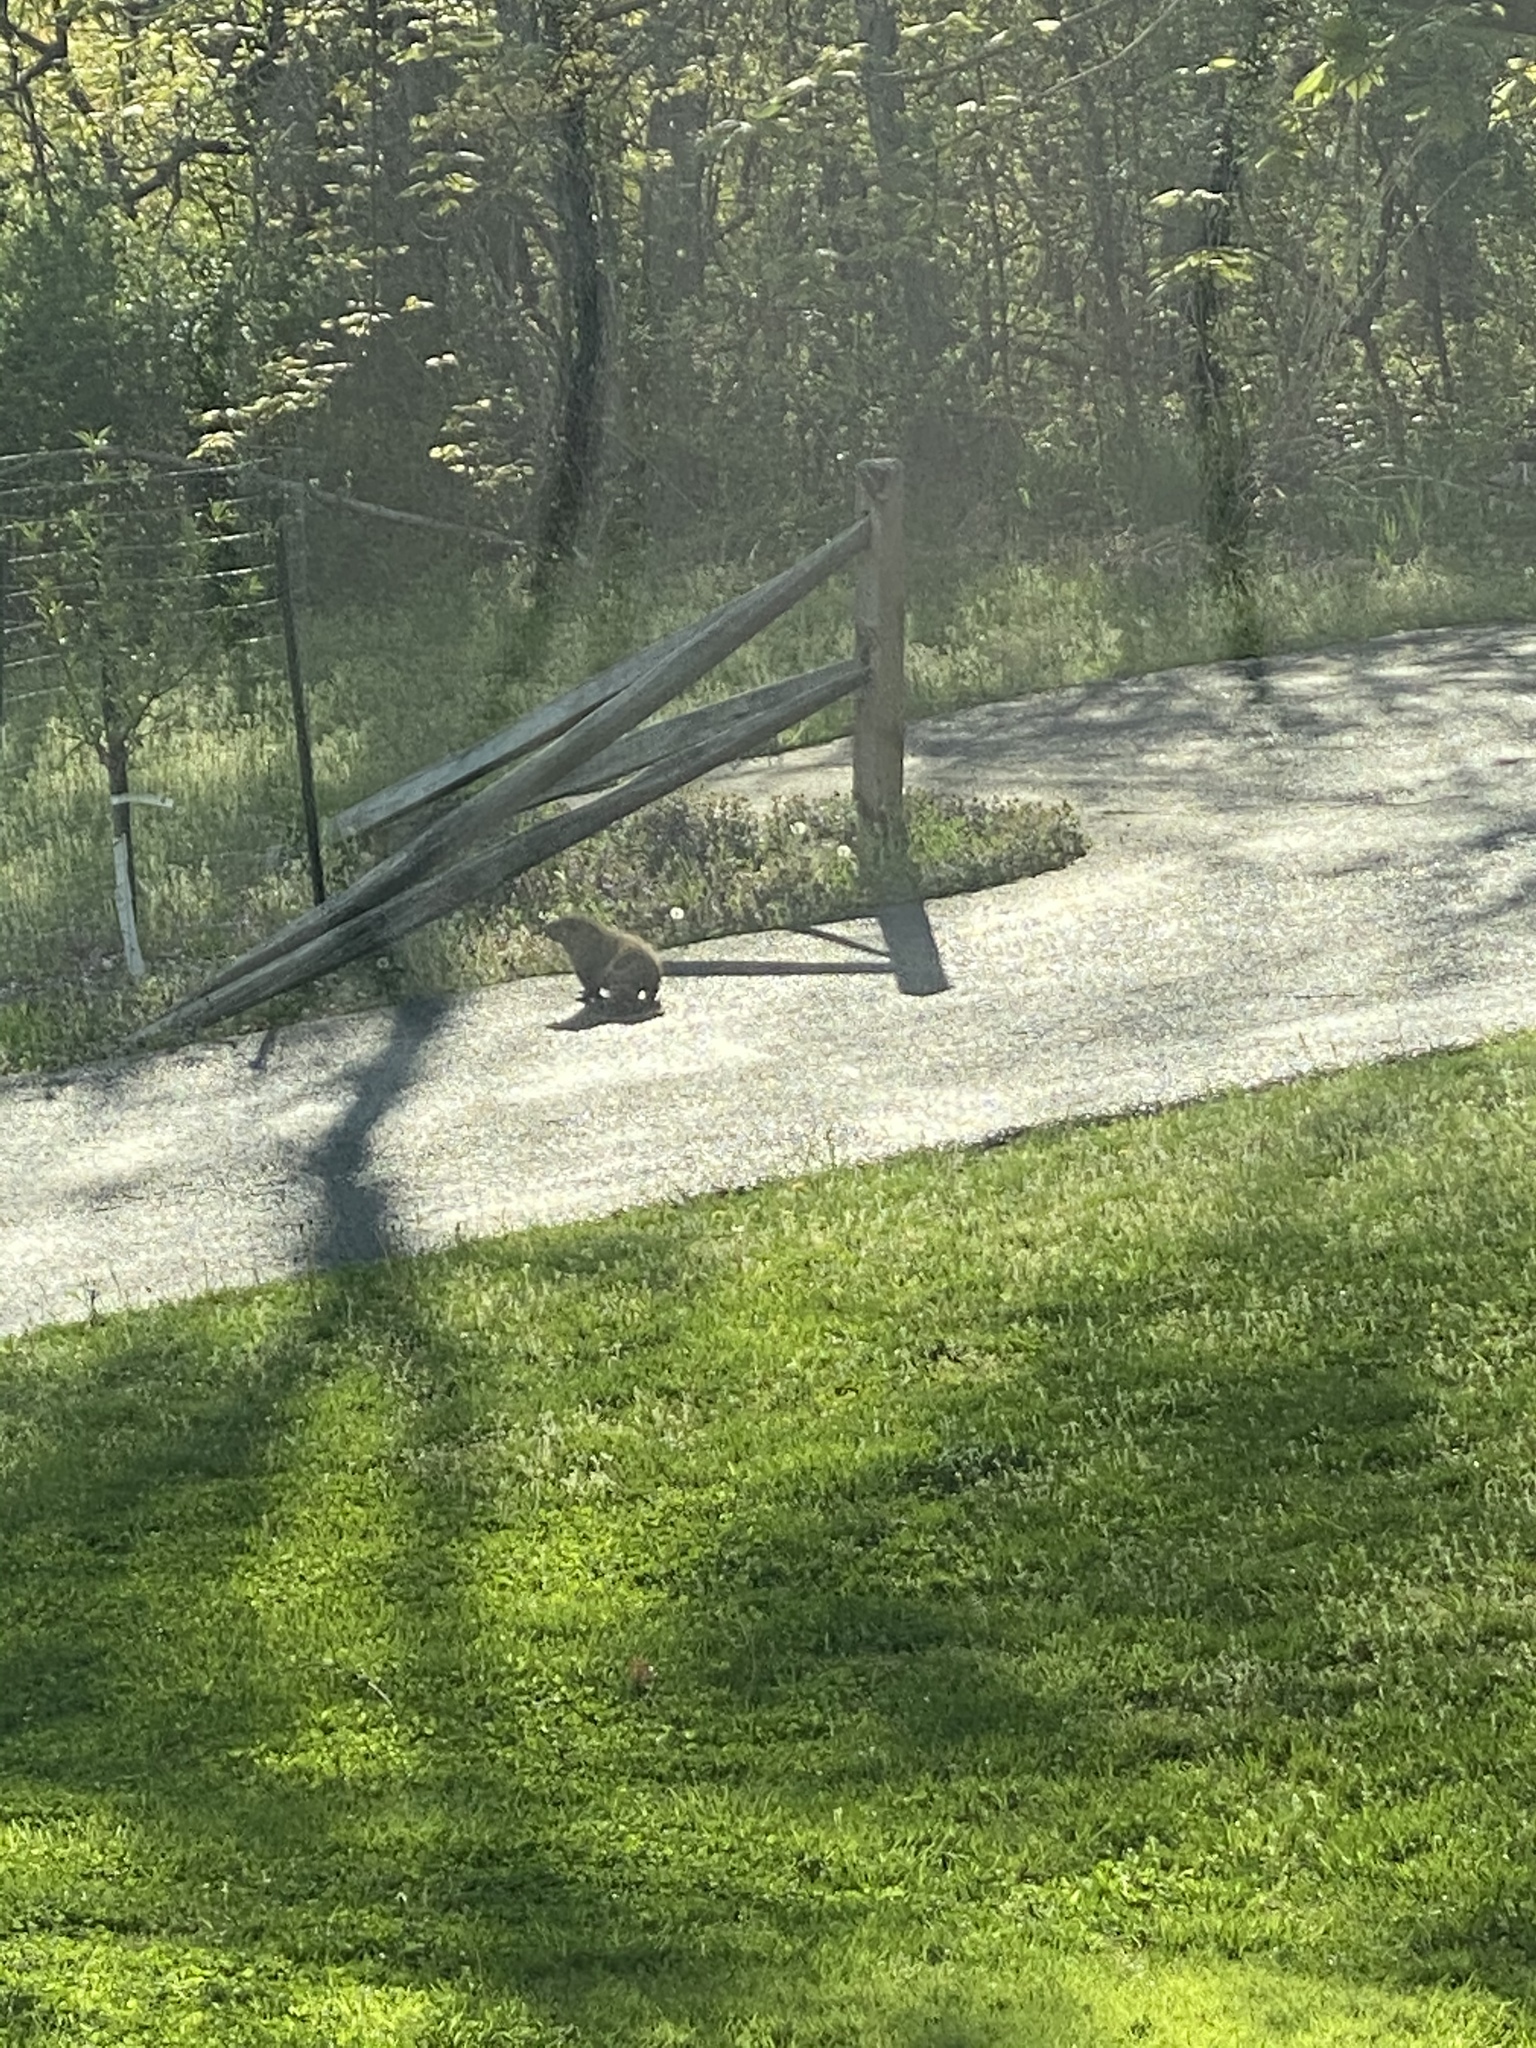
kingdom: Animalia
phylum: Chordata
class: Mammalia
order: Rodentia
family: Sciuridae
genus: Marmota
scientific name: Marmota monax
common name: Groundhog
